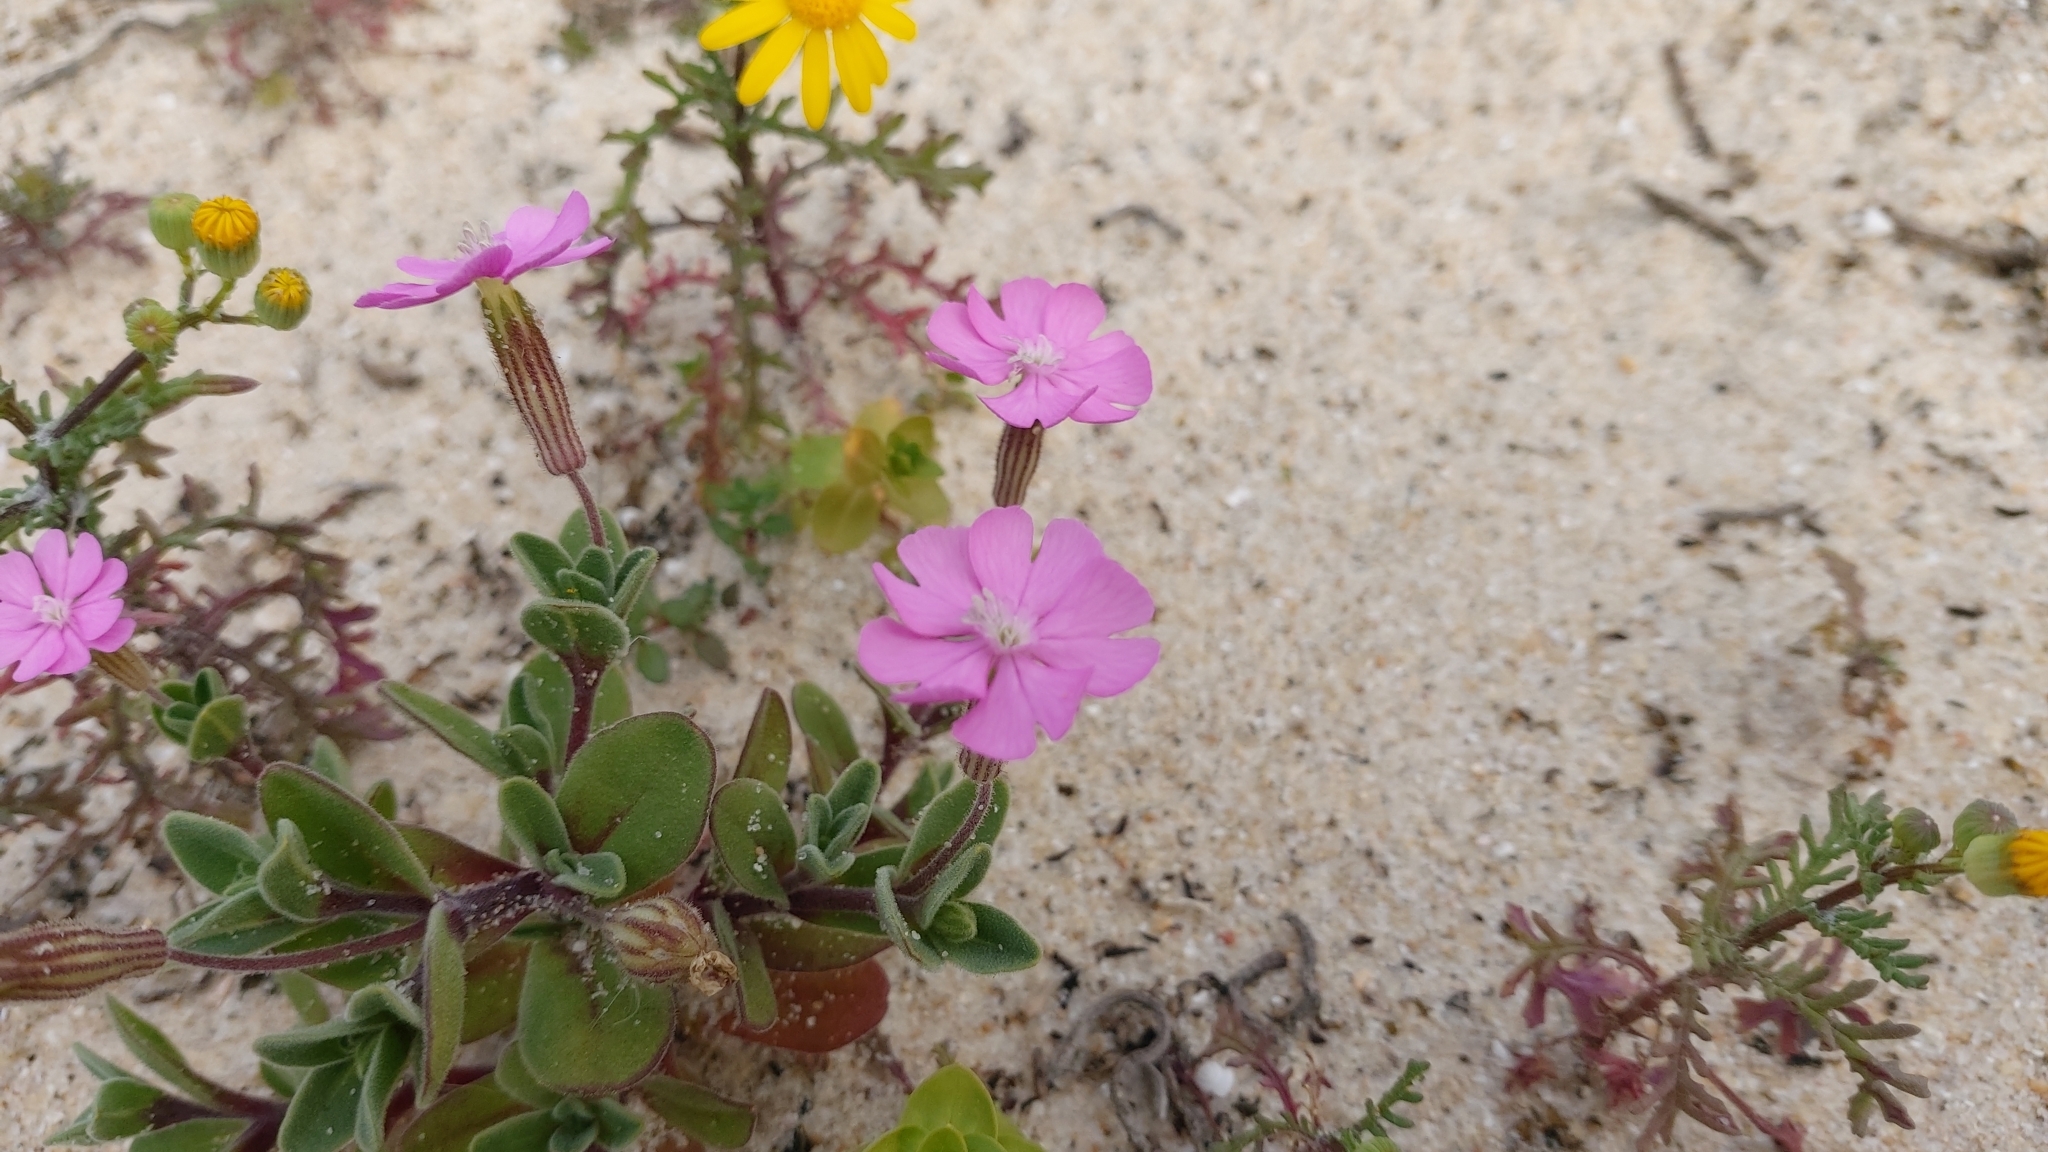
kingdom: Plantae
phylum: Tracheophyta
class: Magnoliopsida
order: Caryophyllales
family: Caryophyllaceae
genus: Silene
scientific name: Silene littorea
